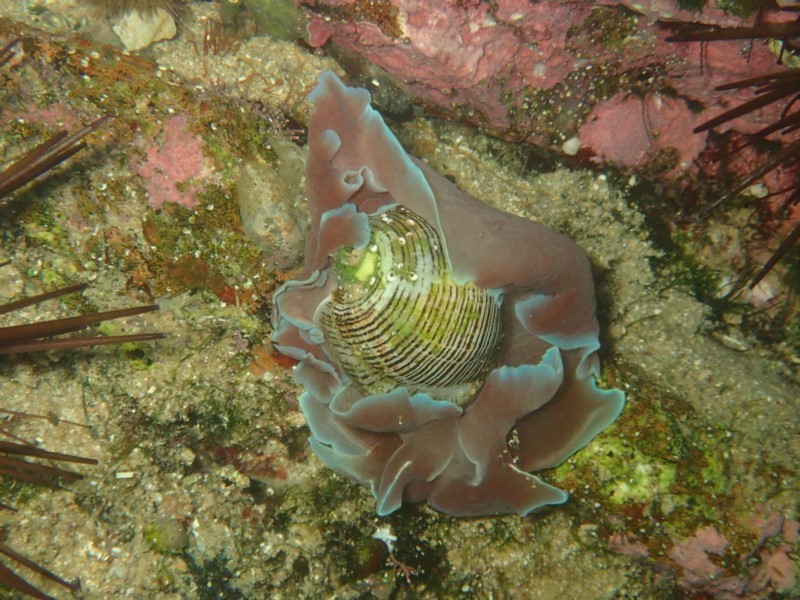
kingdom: Animalia
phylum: Mollusca
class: Gastropoda
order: Cephalaspidea
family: Aplustridae
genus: Hydatina
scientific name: Hydatina physis
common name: Brown-line paperbubble
